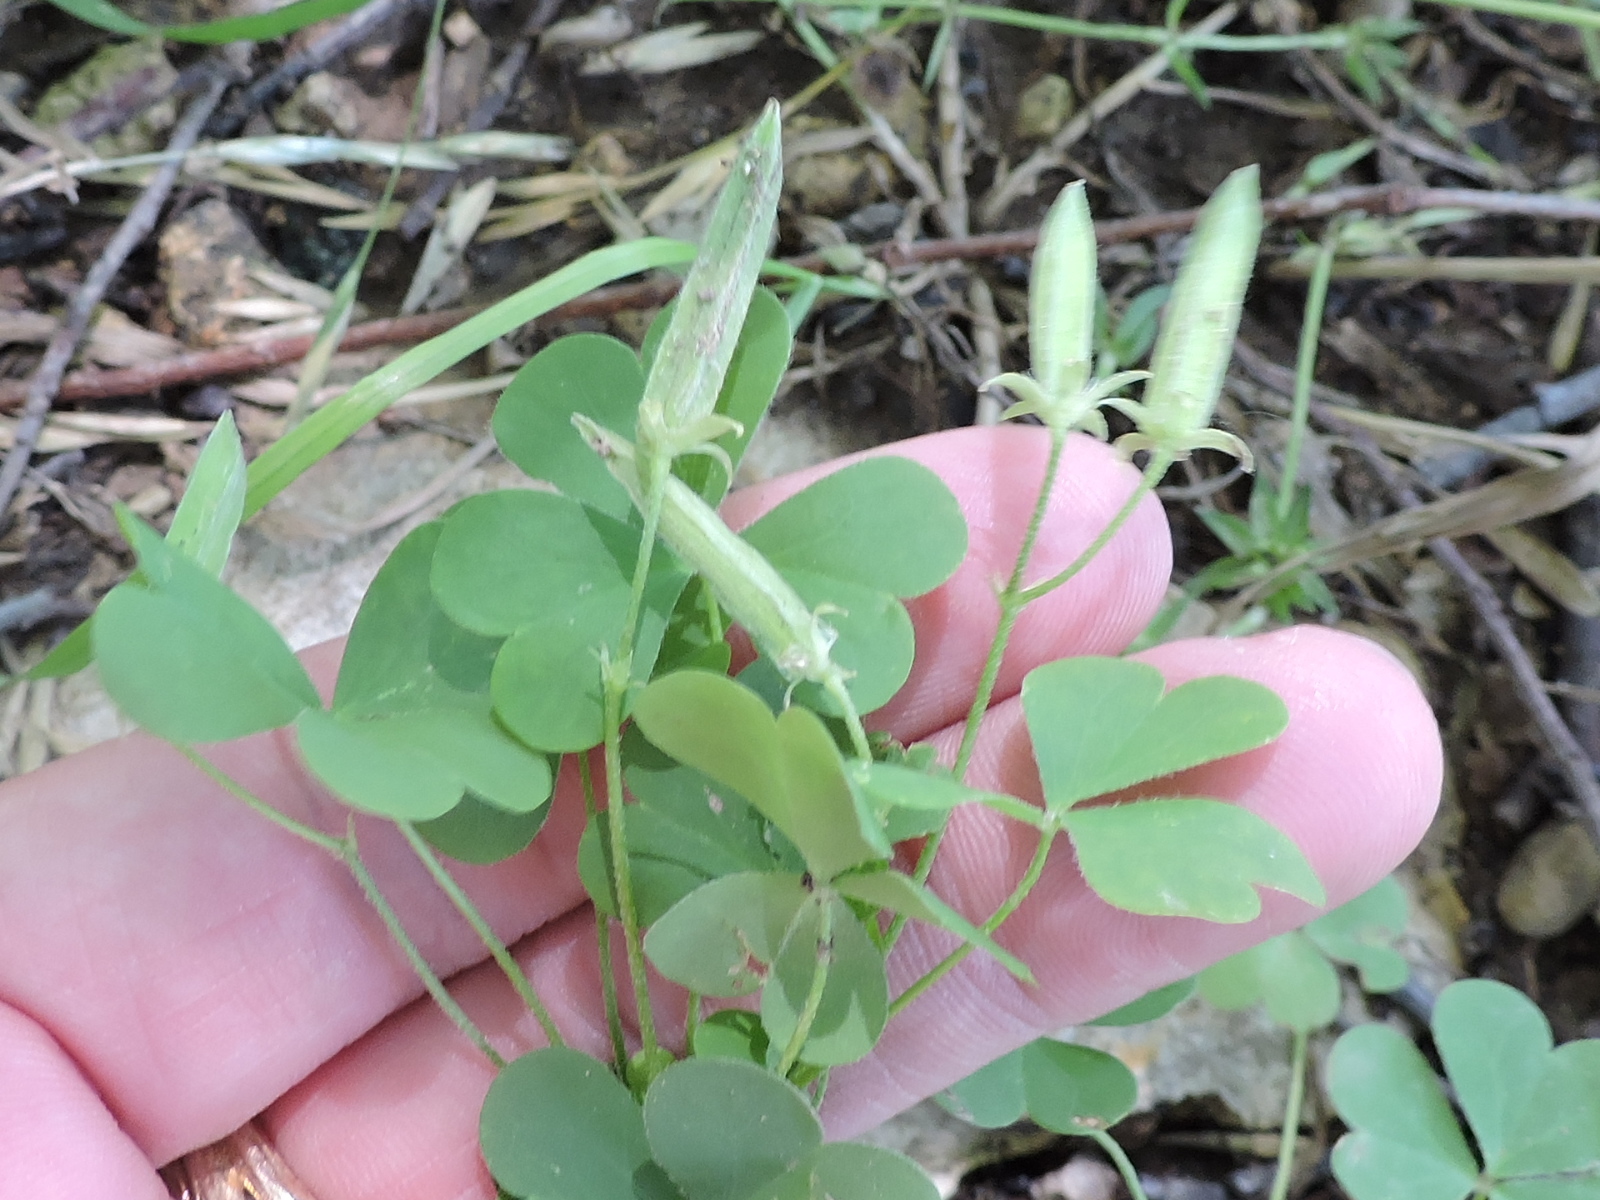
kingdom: Plantae
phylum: Tracheophyta
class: Magnoliopsida
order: Oxalidales
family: Oxalidaceae
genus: Oxalis
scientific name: Oxalis dillenii
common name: Sussex yellow-sorrel
